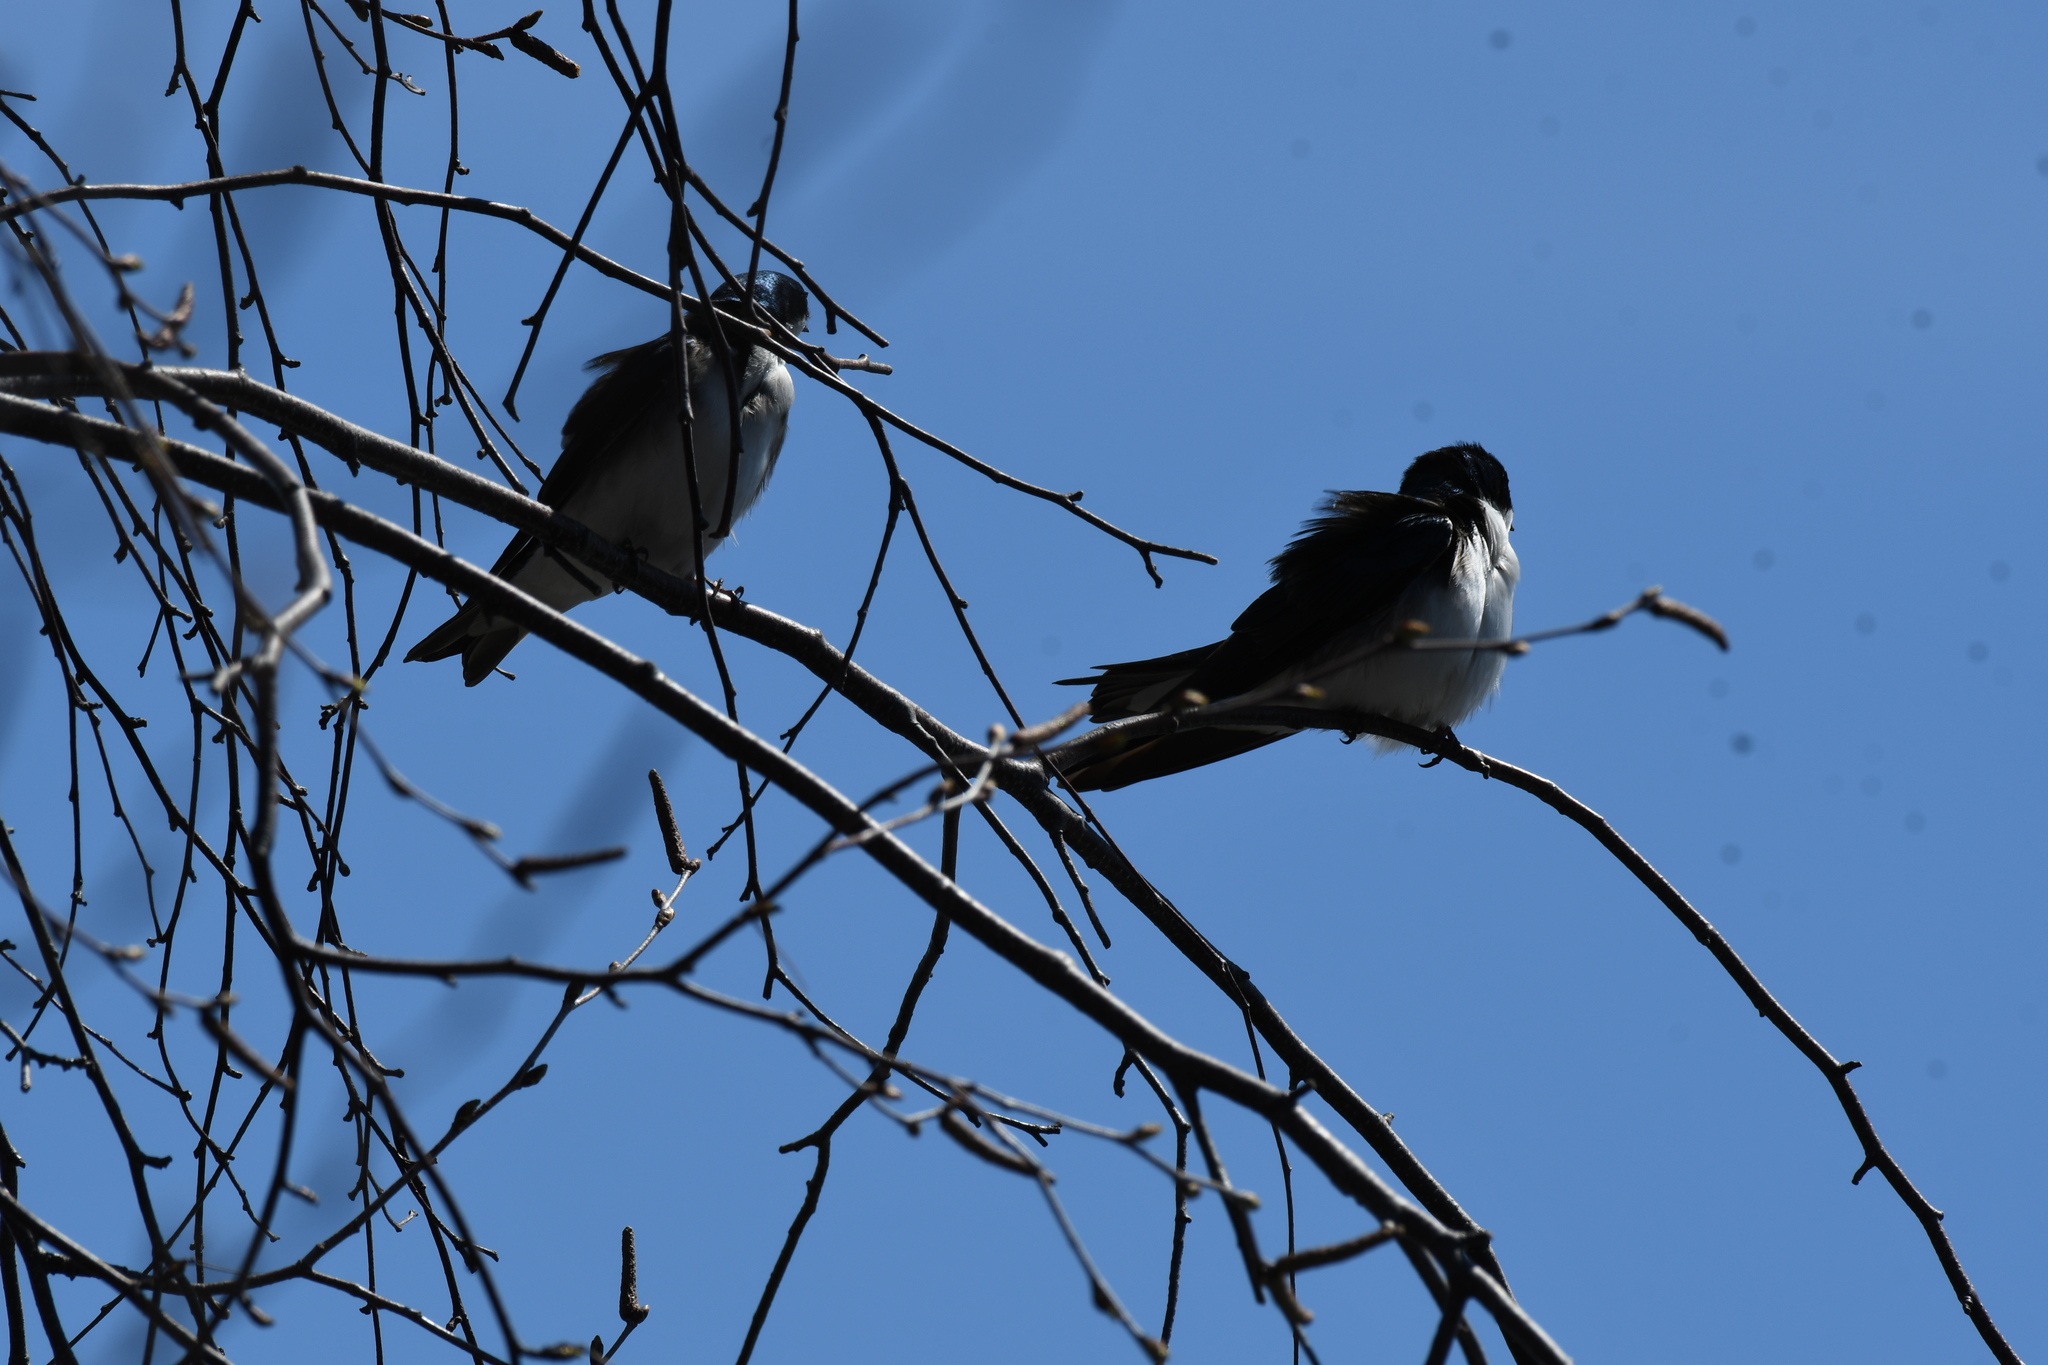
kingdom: Animalia
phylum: Chordata
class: Aves
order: Passeriformes
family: Hirundinidae
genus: Tachycineta
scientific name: Tachycineta bicolor
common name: Tree swallow
